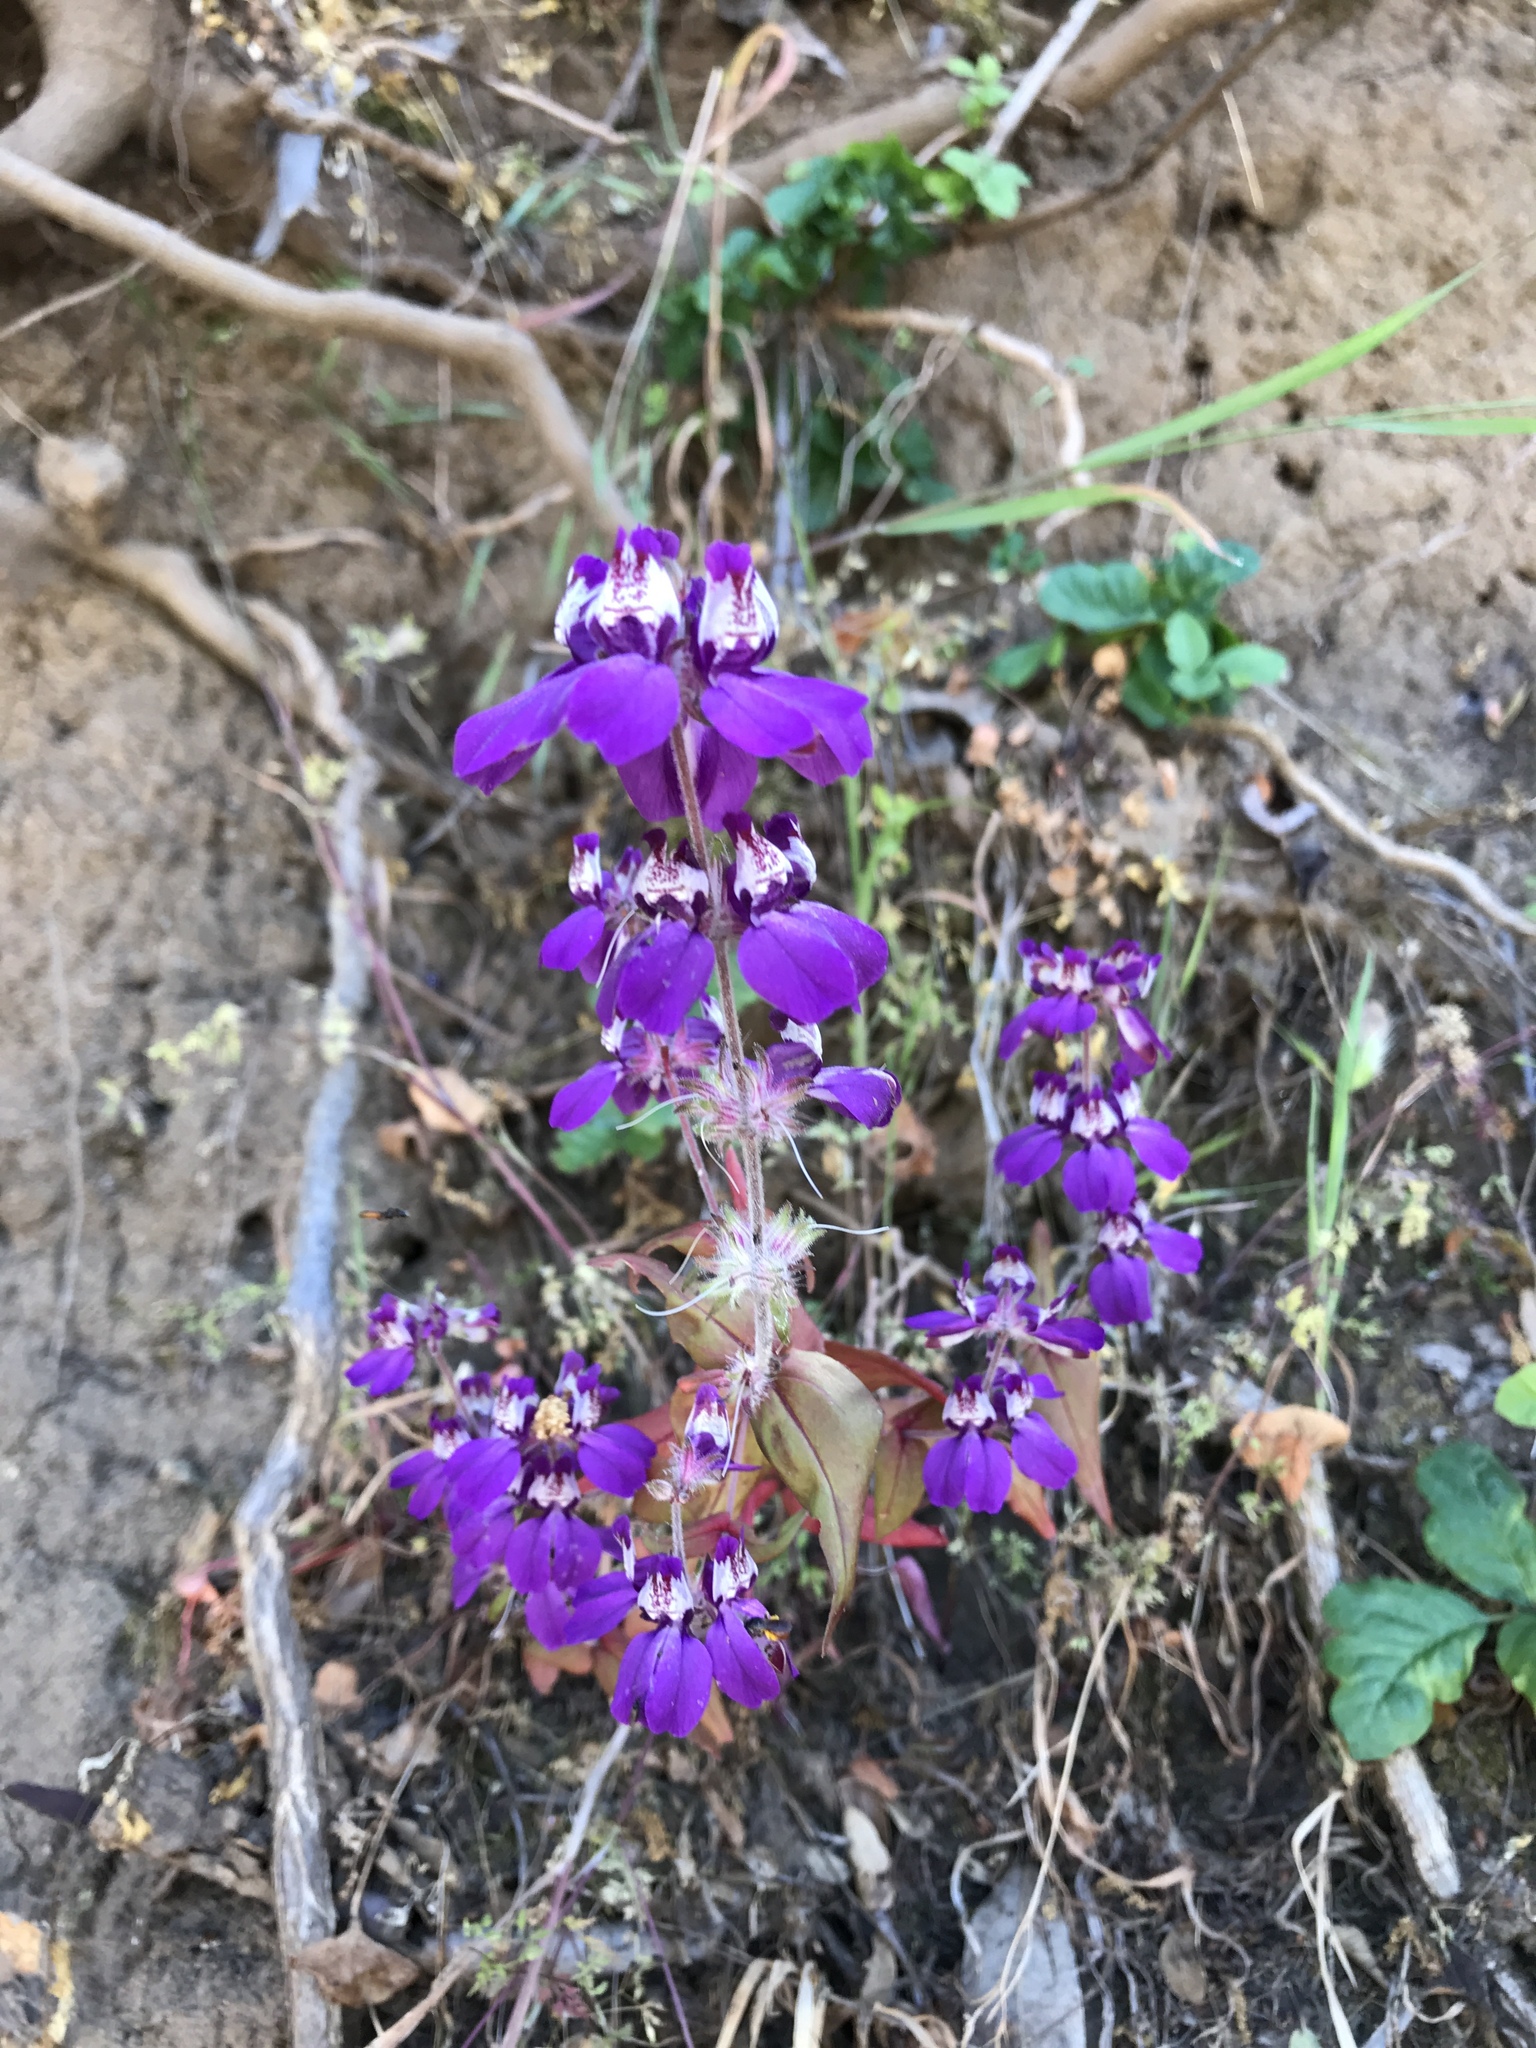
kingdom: Plantae
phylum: Tracheophyta
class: Magnoliopsida
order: Lamiales
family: Plantaginaceae
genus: Collinsia
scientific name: Collinsia heterophylla
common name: Chinese-houses
